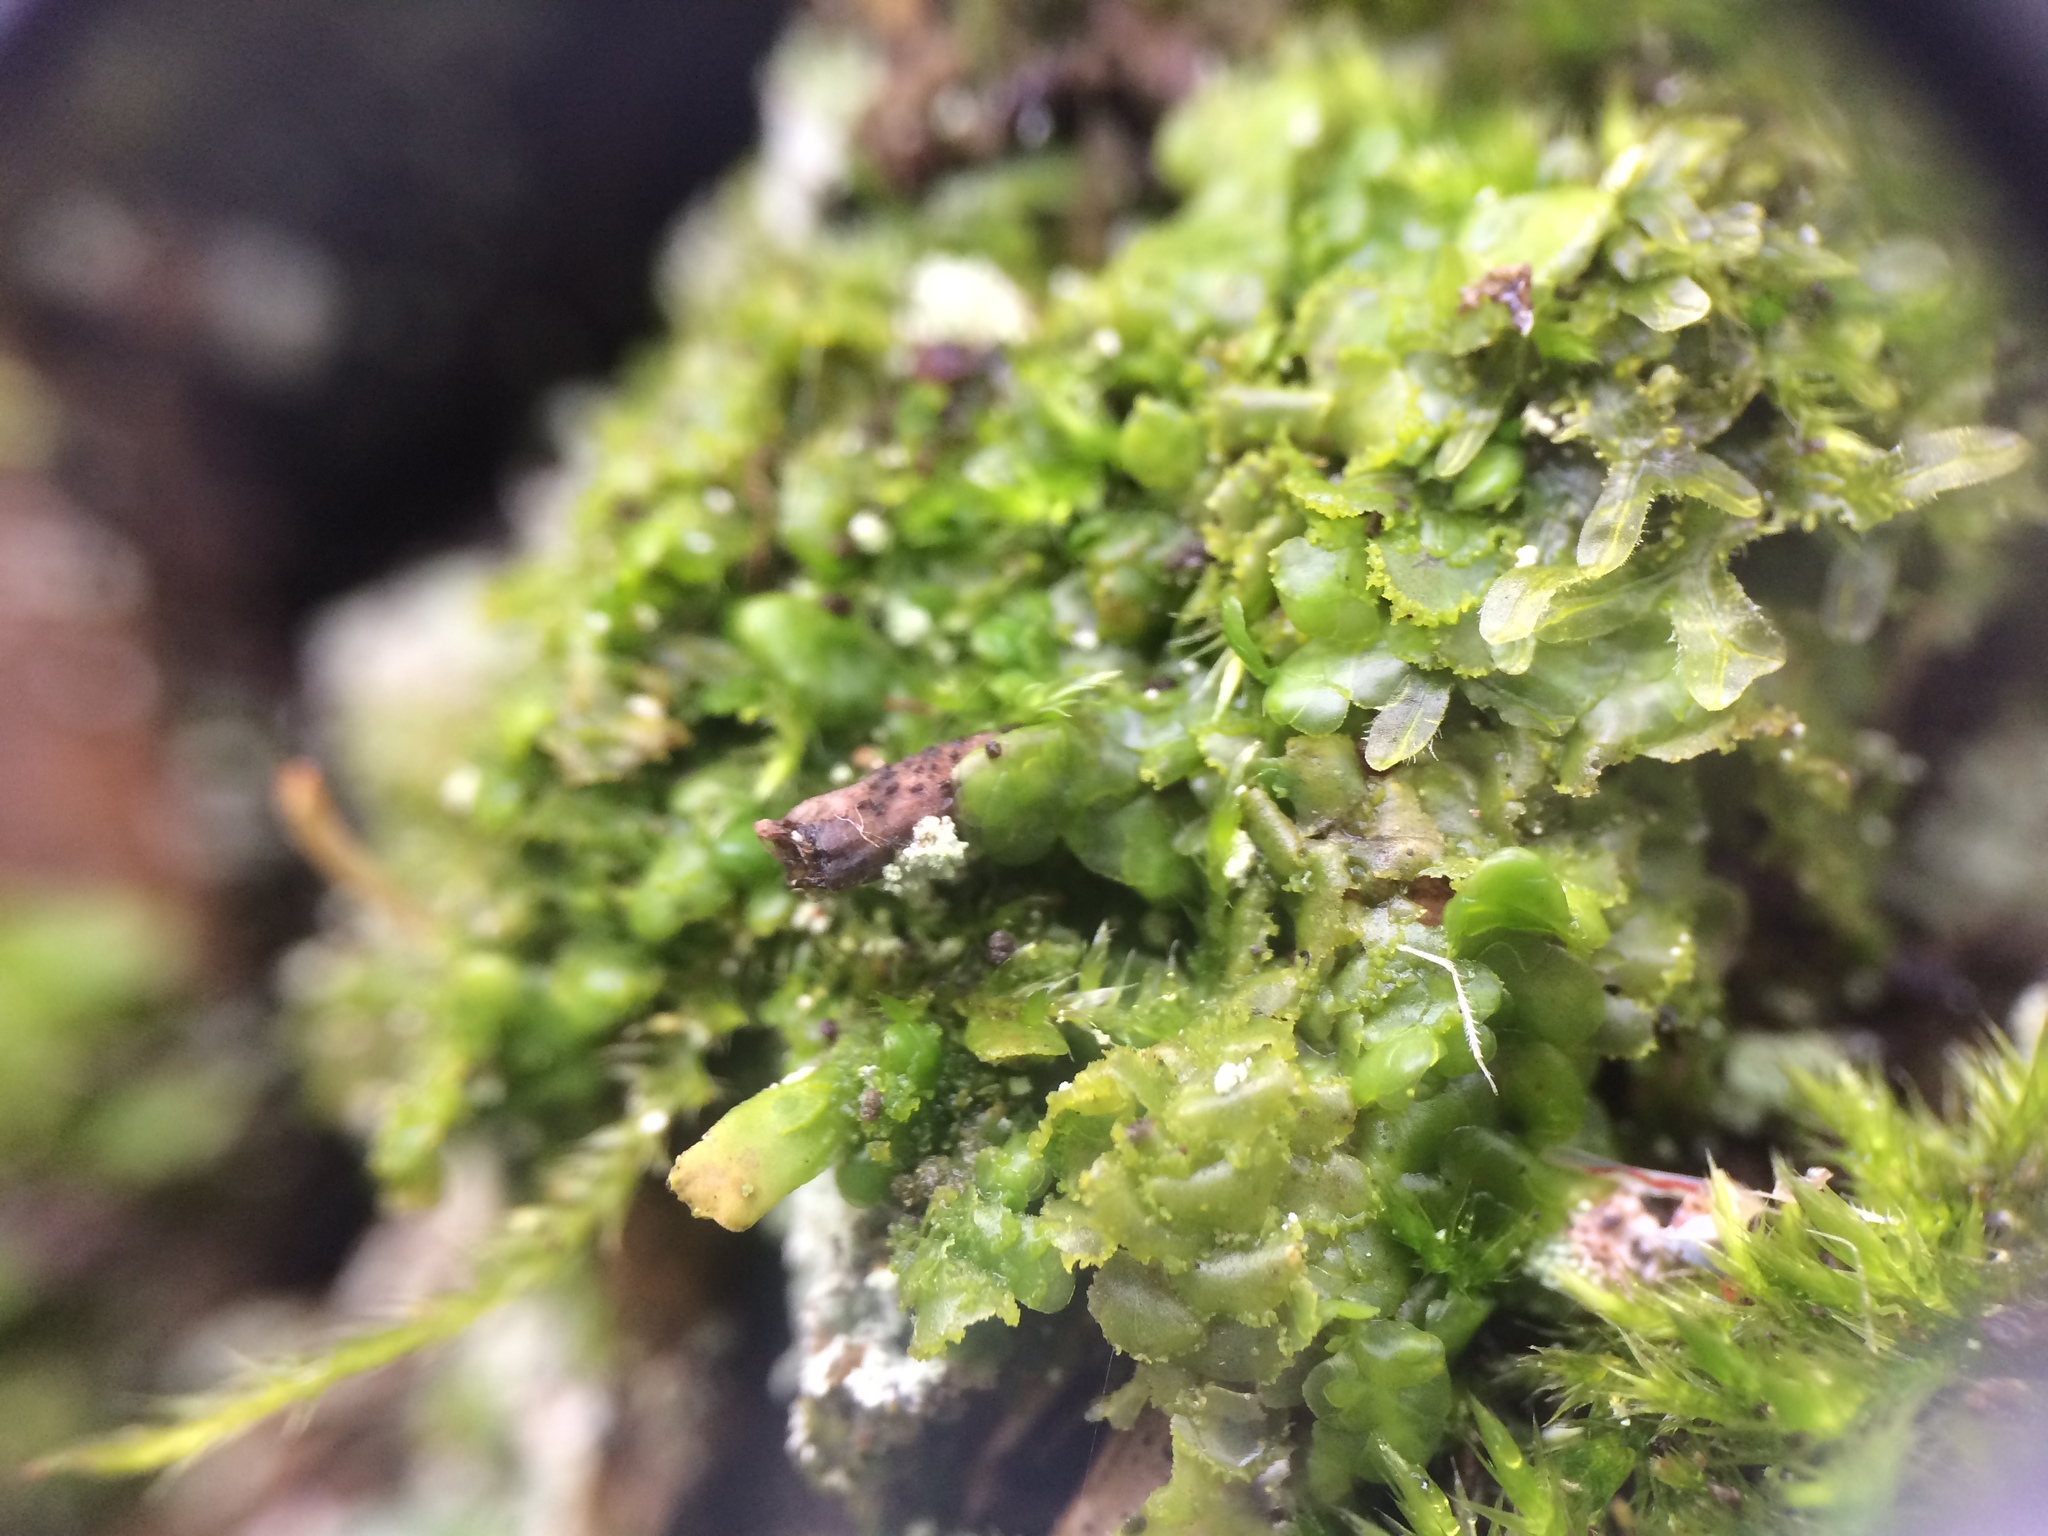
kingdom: Plantae
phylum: Marchantiophyta
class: Jungermanniopsida
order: Porellales
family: Radulaceae
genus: Radula
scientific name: Radula complanata
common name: Flat-leaved scalewort
